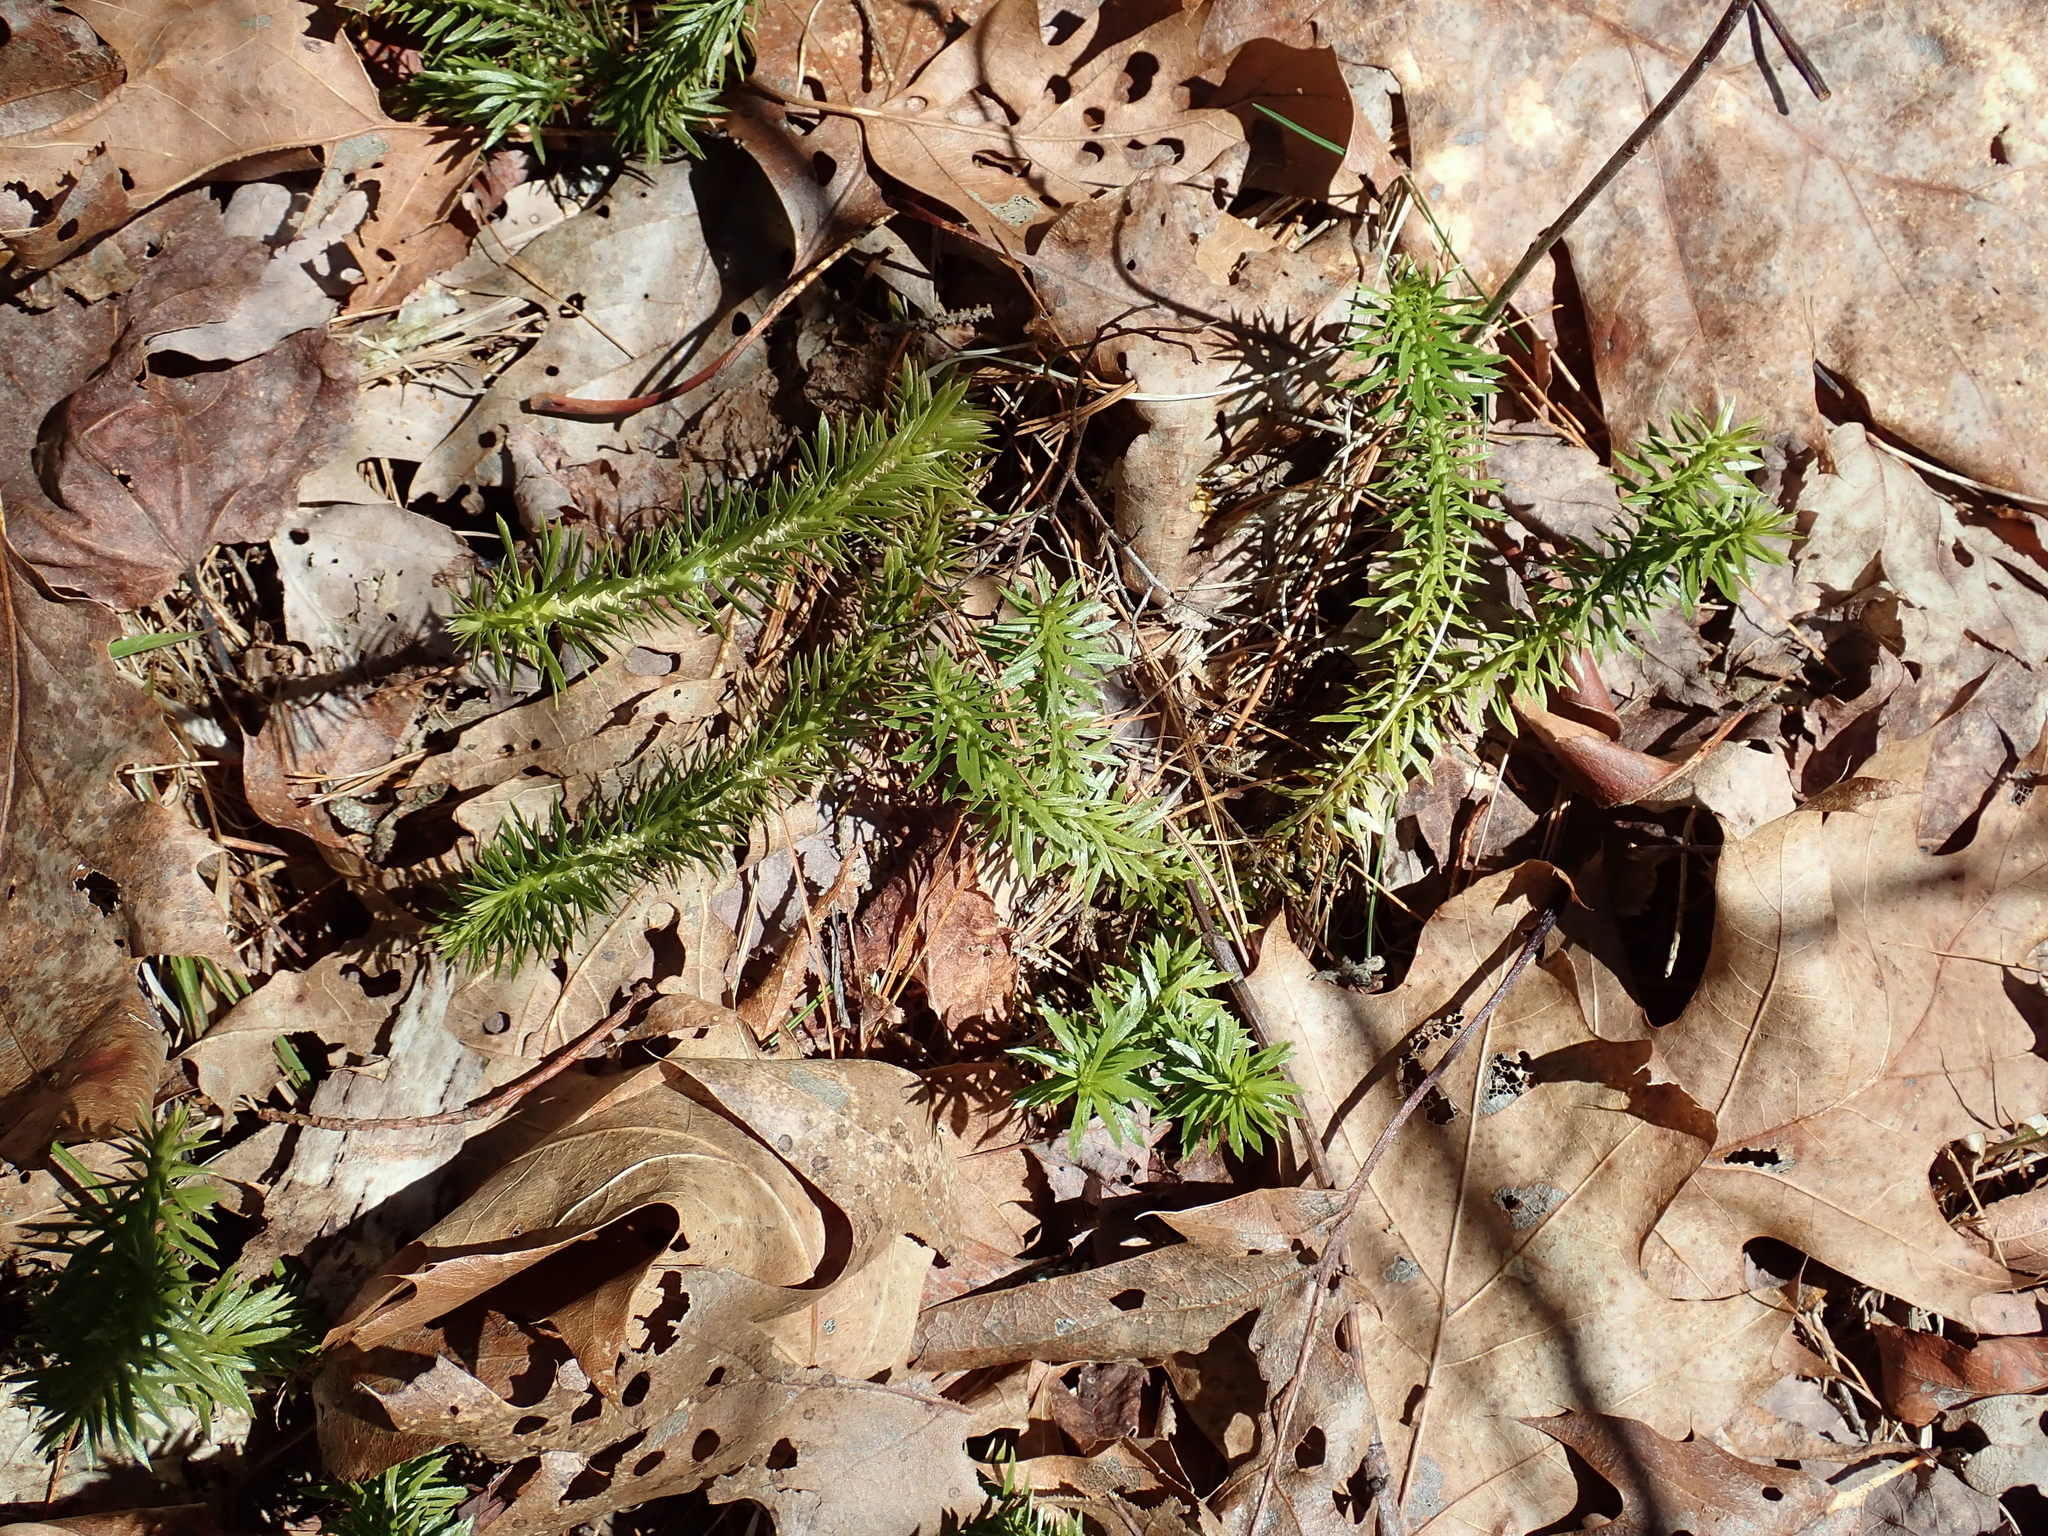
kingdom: Plantae
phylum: Tracheophyta
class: Lycopodiopsida
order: Lycopodiales
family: Lycopodiaceae
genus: Huperzia
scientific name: Huperzia lucidula
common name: Shining clubmoss
